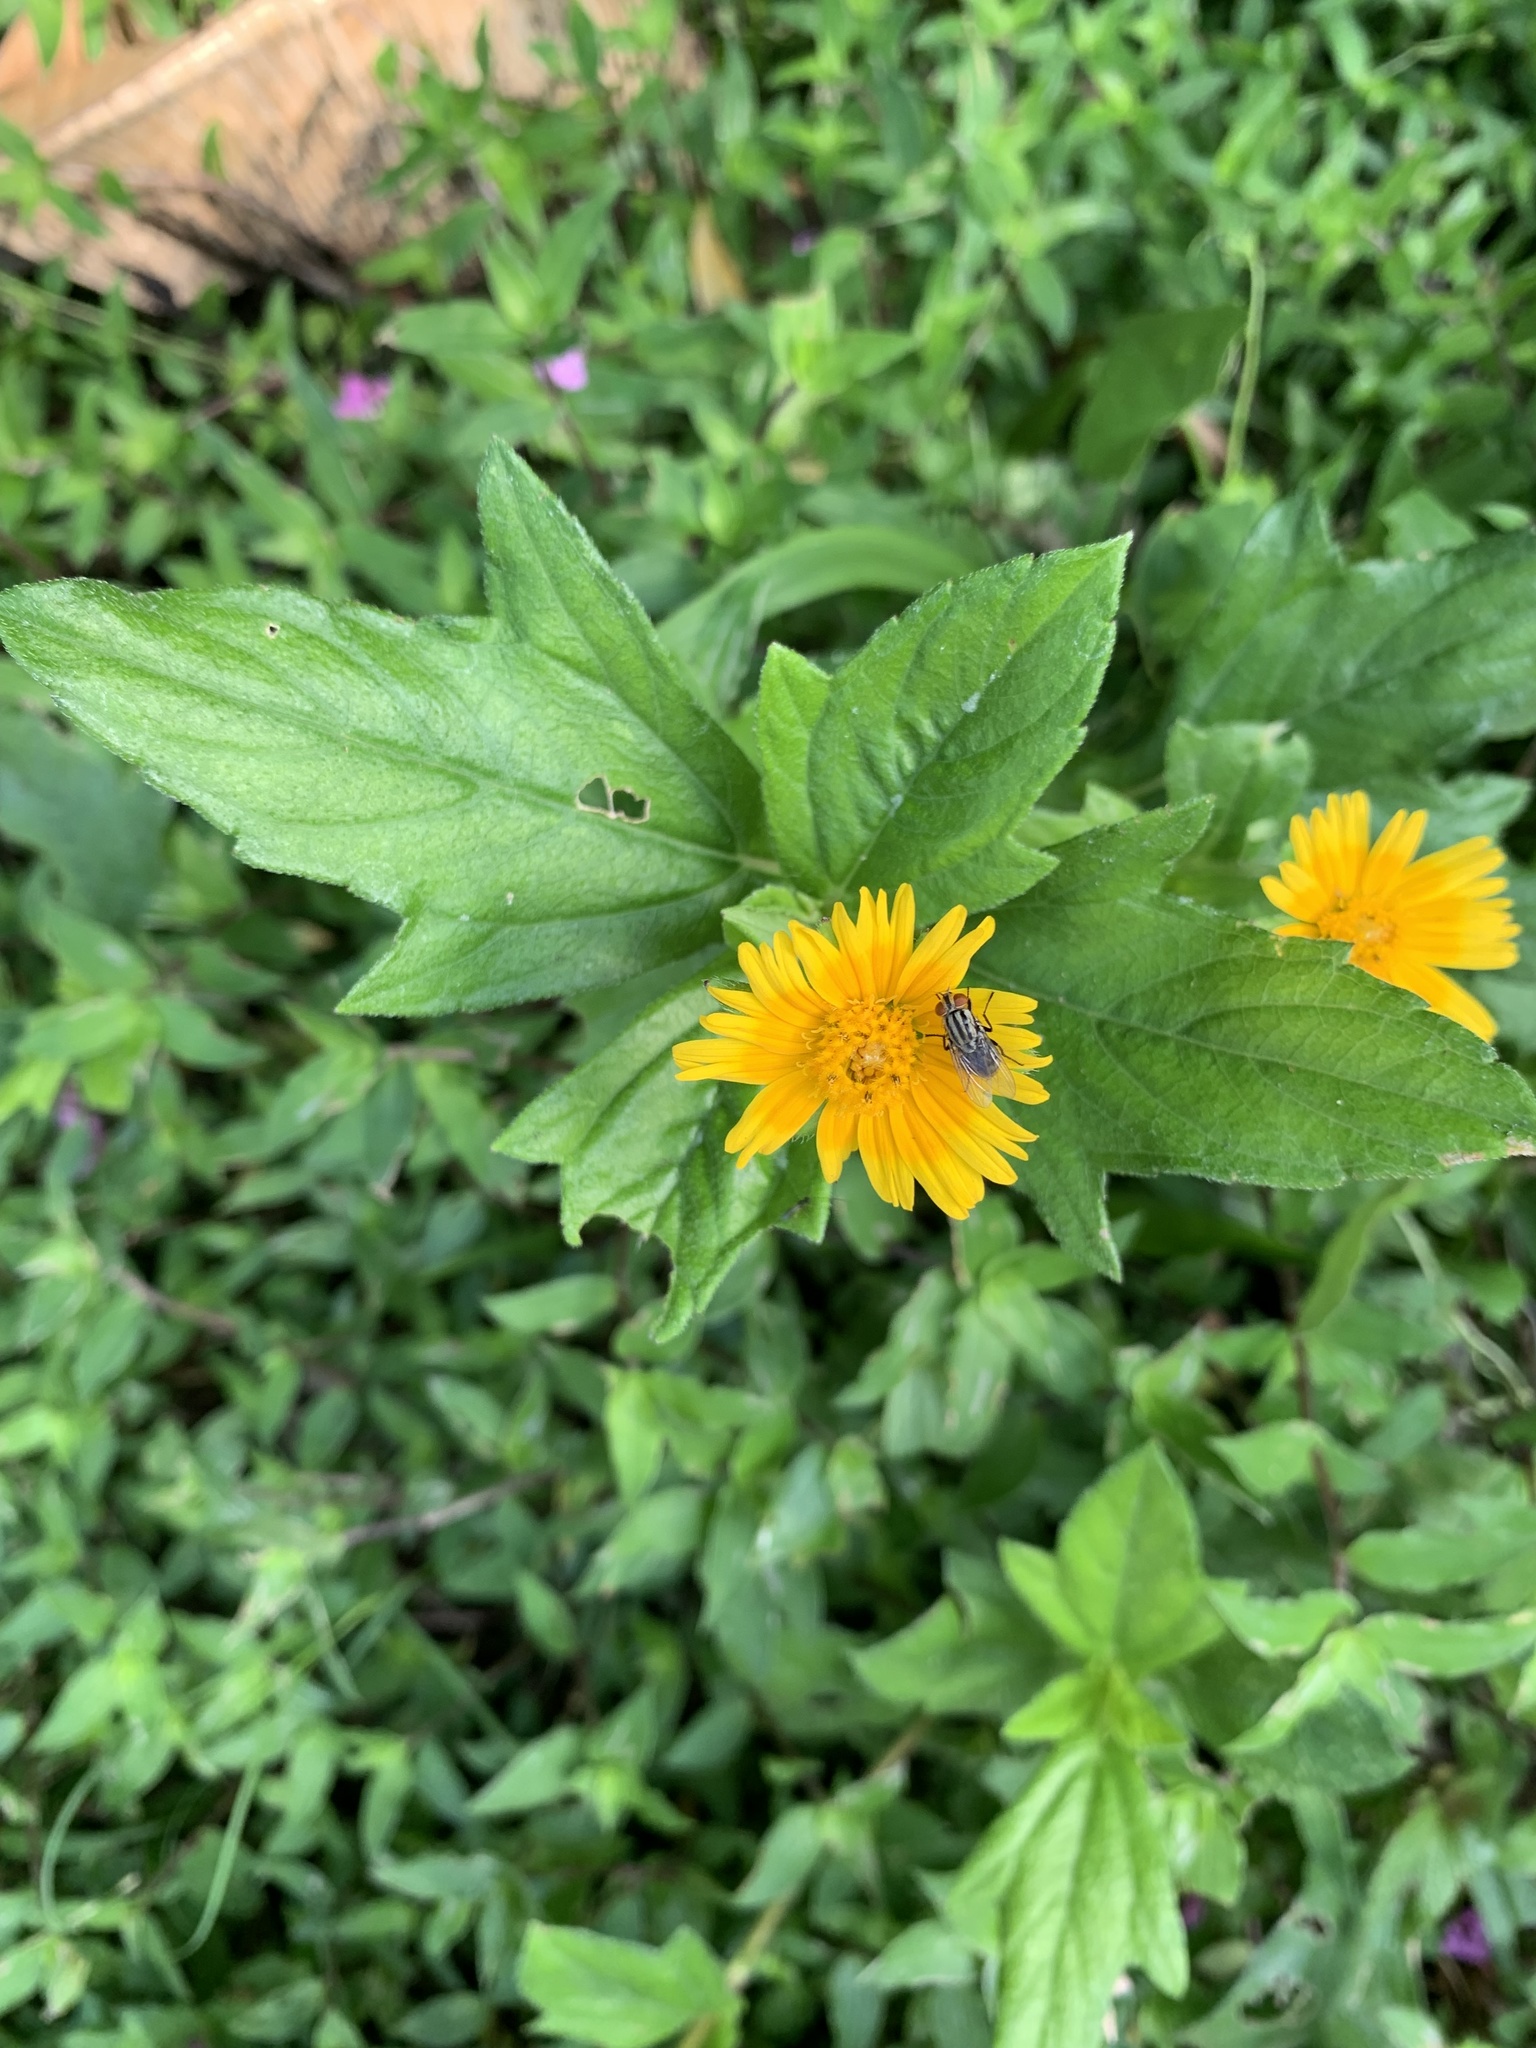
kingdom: Plantae
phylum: Tracheophyta
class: Magnoliopsida
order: Asterales
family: Asteraceae
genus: Sphagneticola
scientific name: Sphagneticola trilobata
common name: Bay biscayne creeping-oxeye
